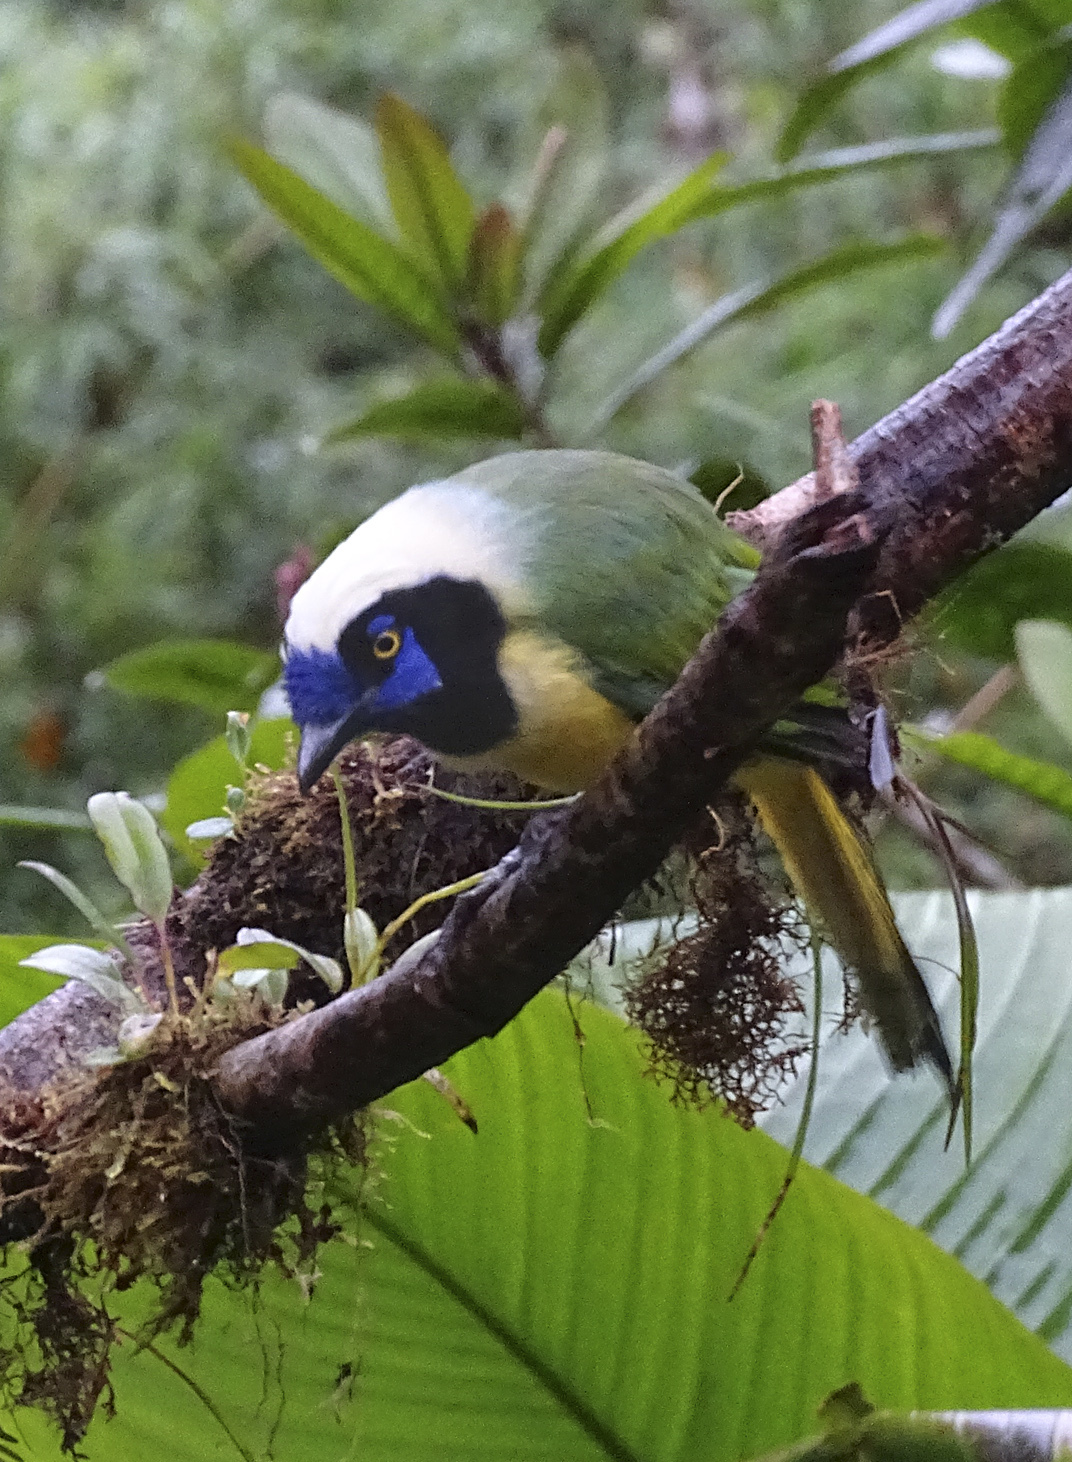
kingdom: Animalia
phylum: Chordata
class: Aves
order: Passeriformes
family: Corvidae
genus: Cyanocorax
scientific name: Cyanocorax yncas
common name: Green jay
